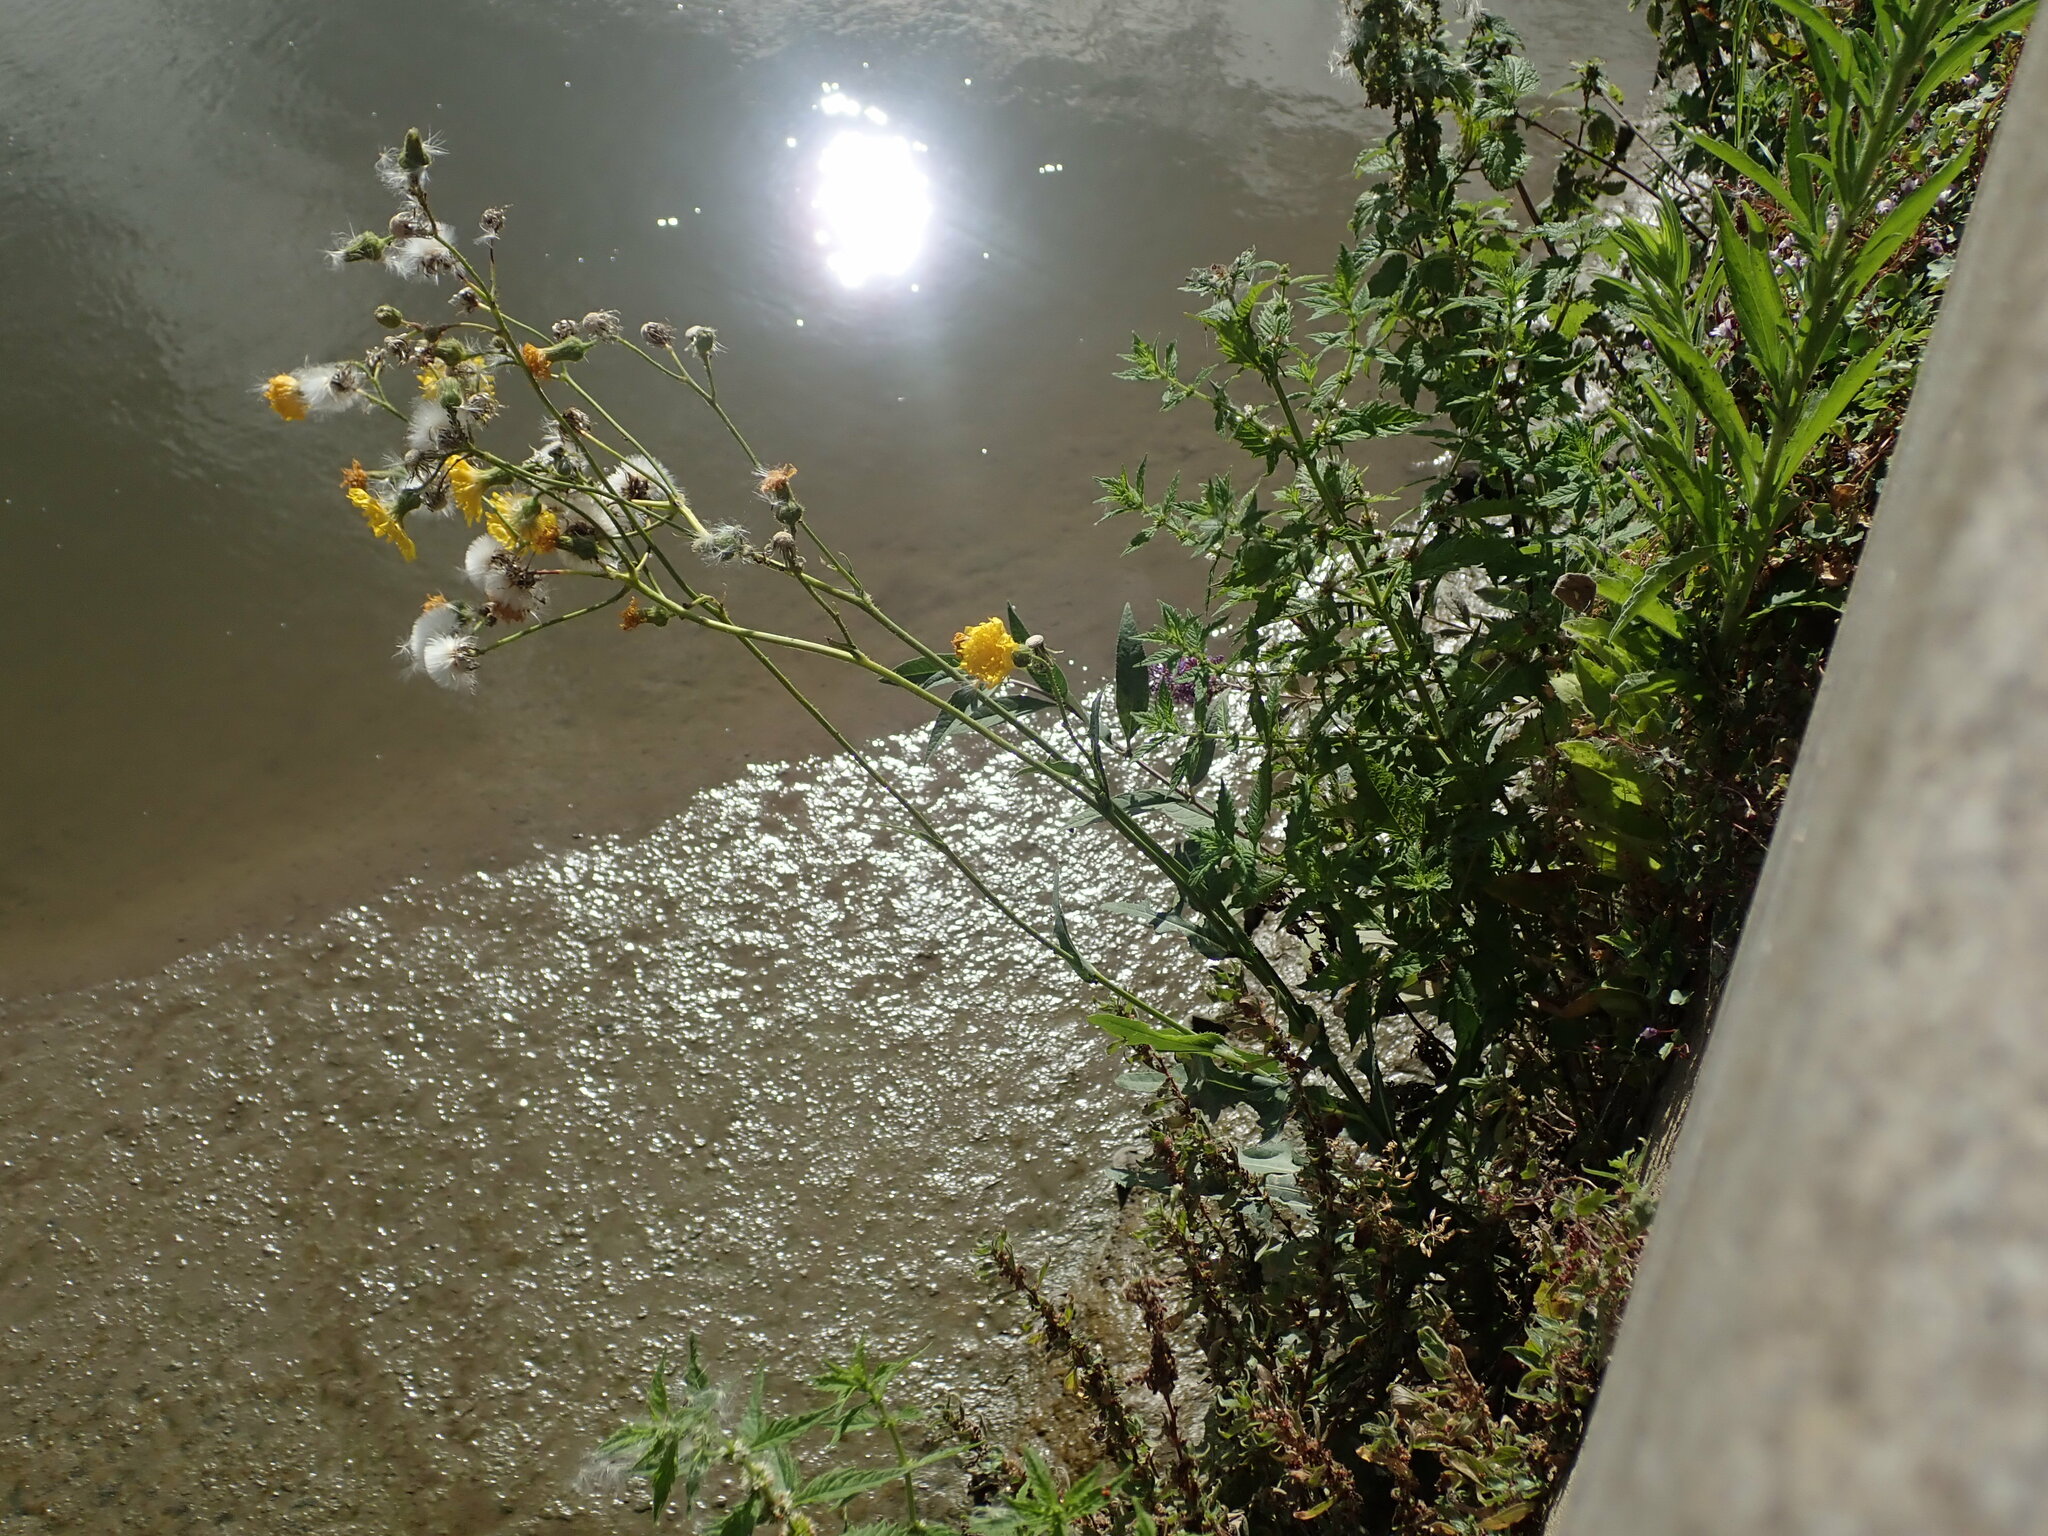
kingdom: Plantae
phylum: Tracheophyta
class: Magnoliopsida
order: Asterales
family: Asteraceae
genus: Sonchus
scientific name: Sonchus arvensis
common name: Perennial sow-thistle
